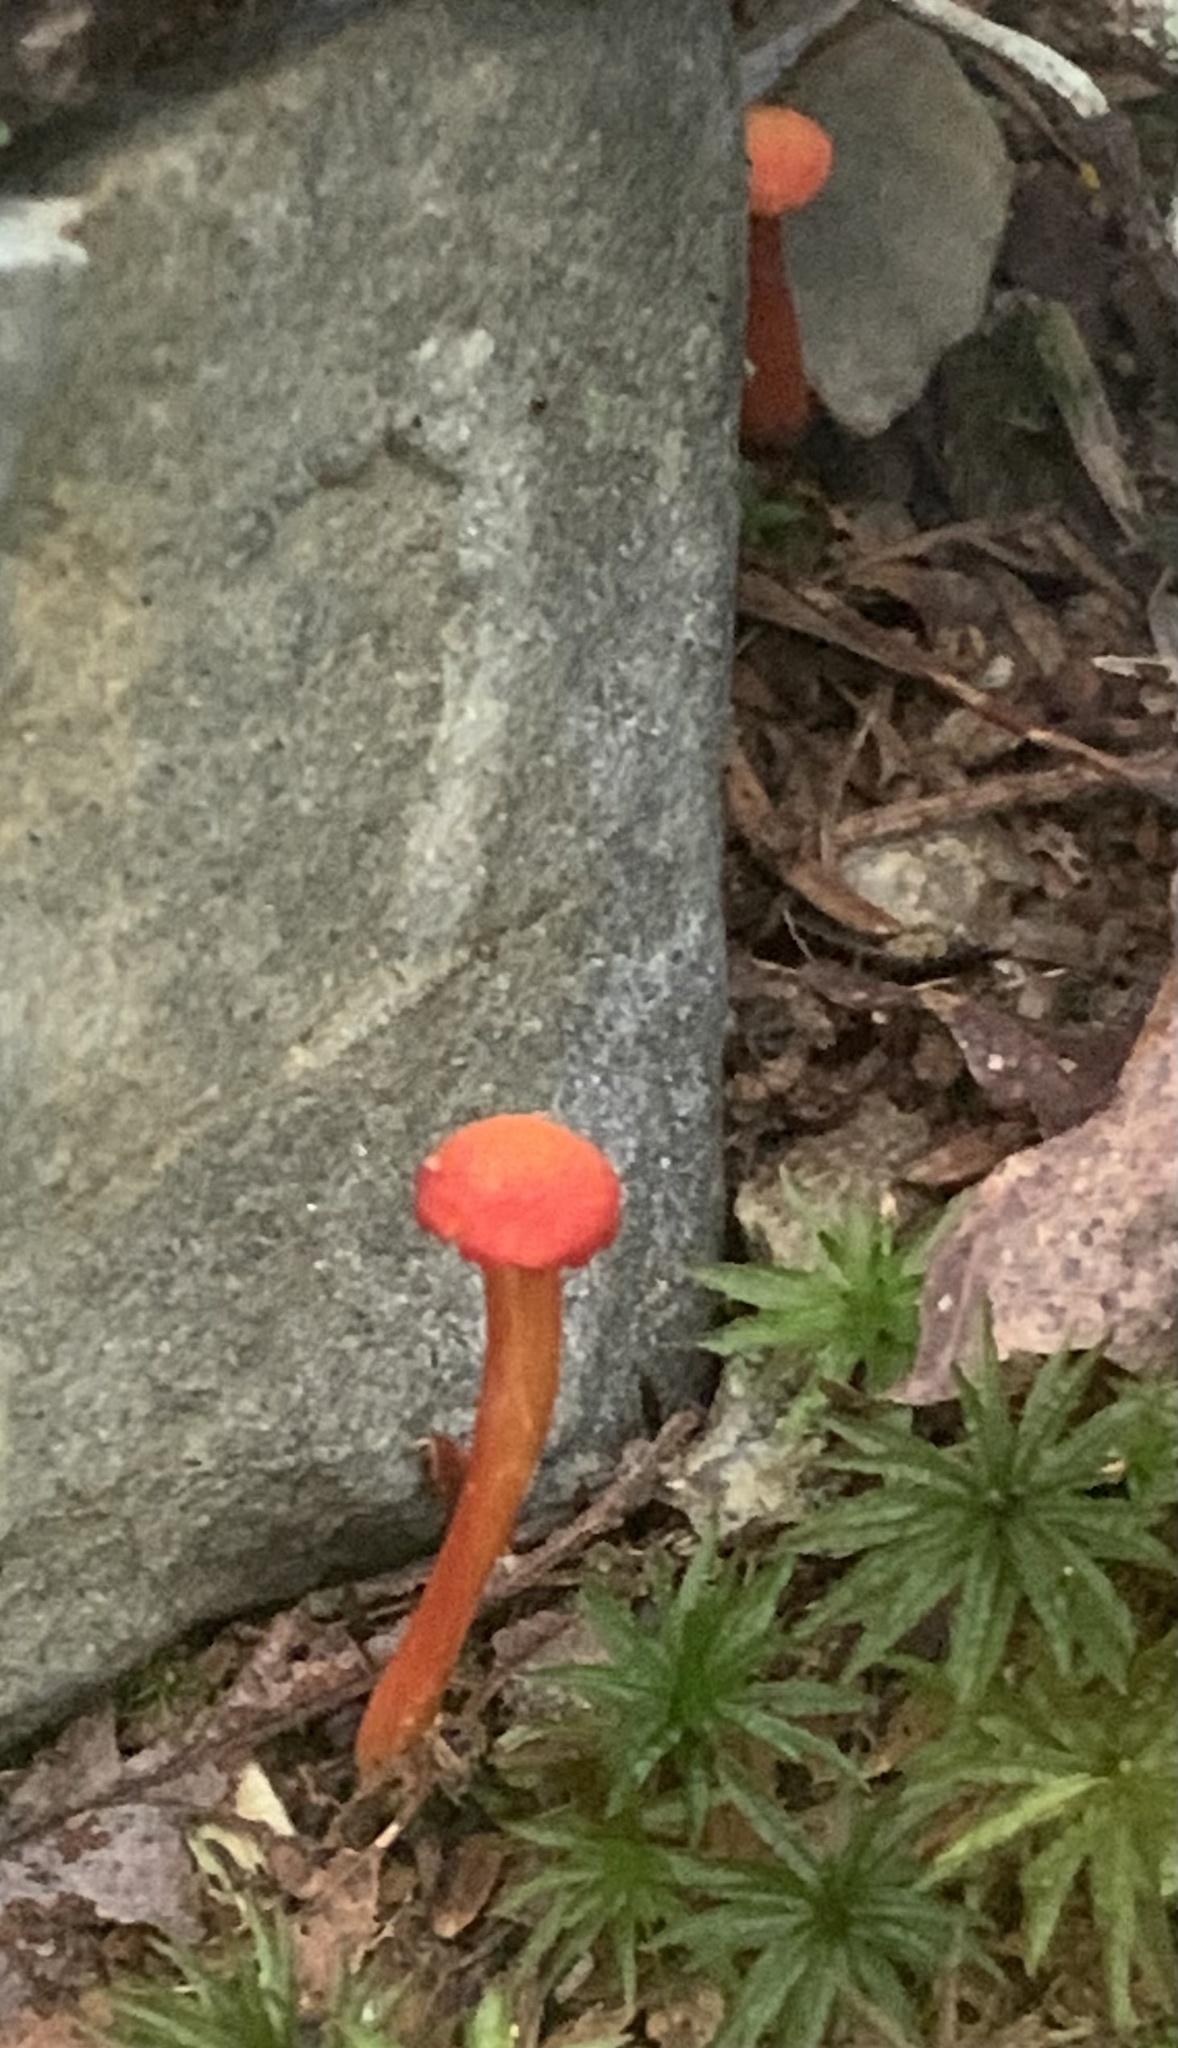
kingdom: Fungi
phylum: Basidiomycota
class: Agaricomycetes
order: Agaricales
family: Hygrophoraceae
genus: Hygrocybe
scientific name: Hygrocybe miniata
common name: Vermilion waxcap
